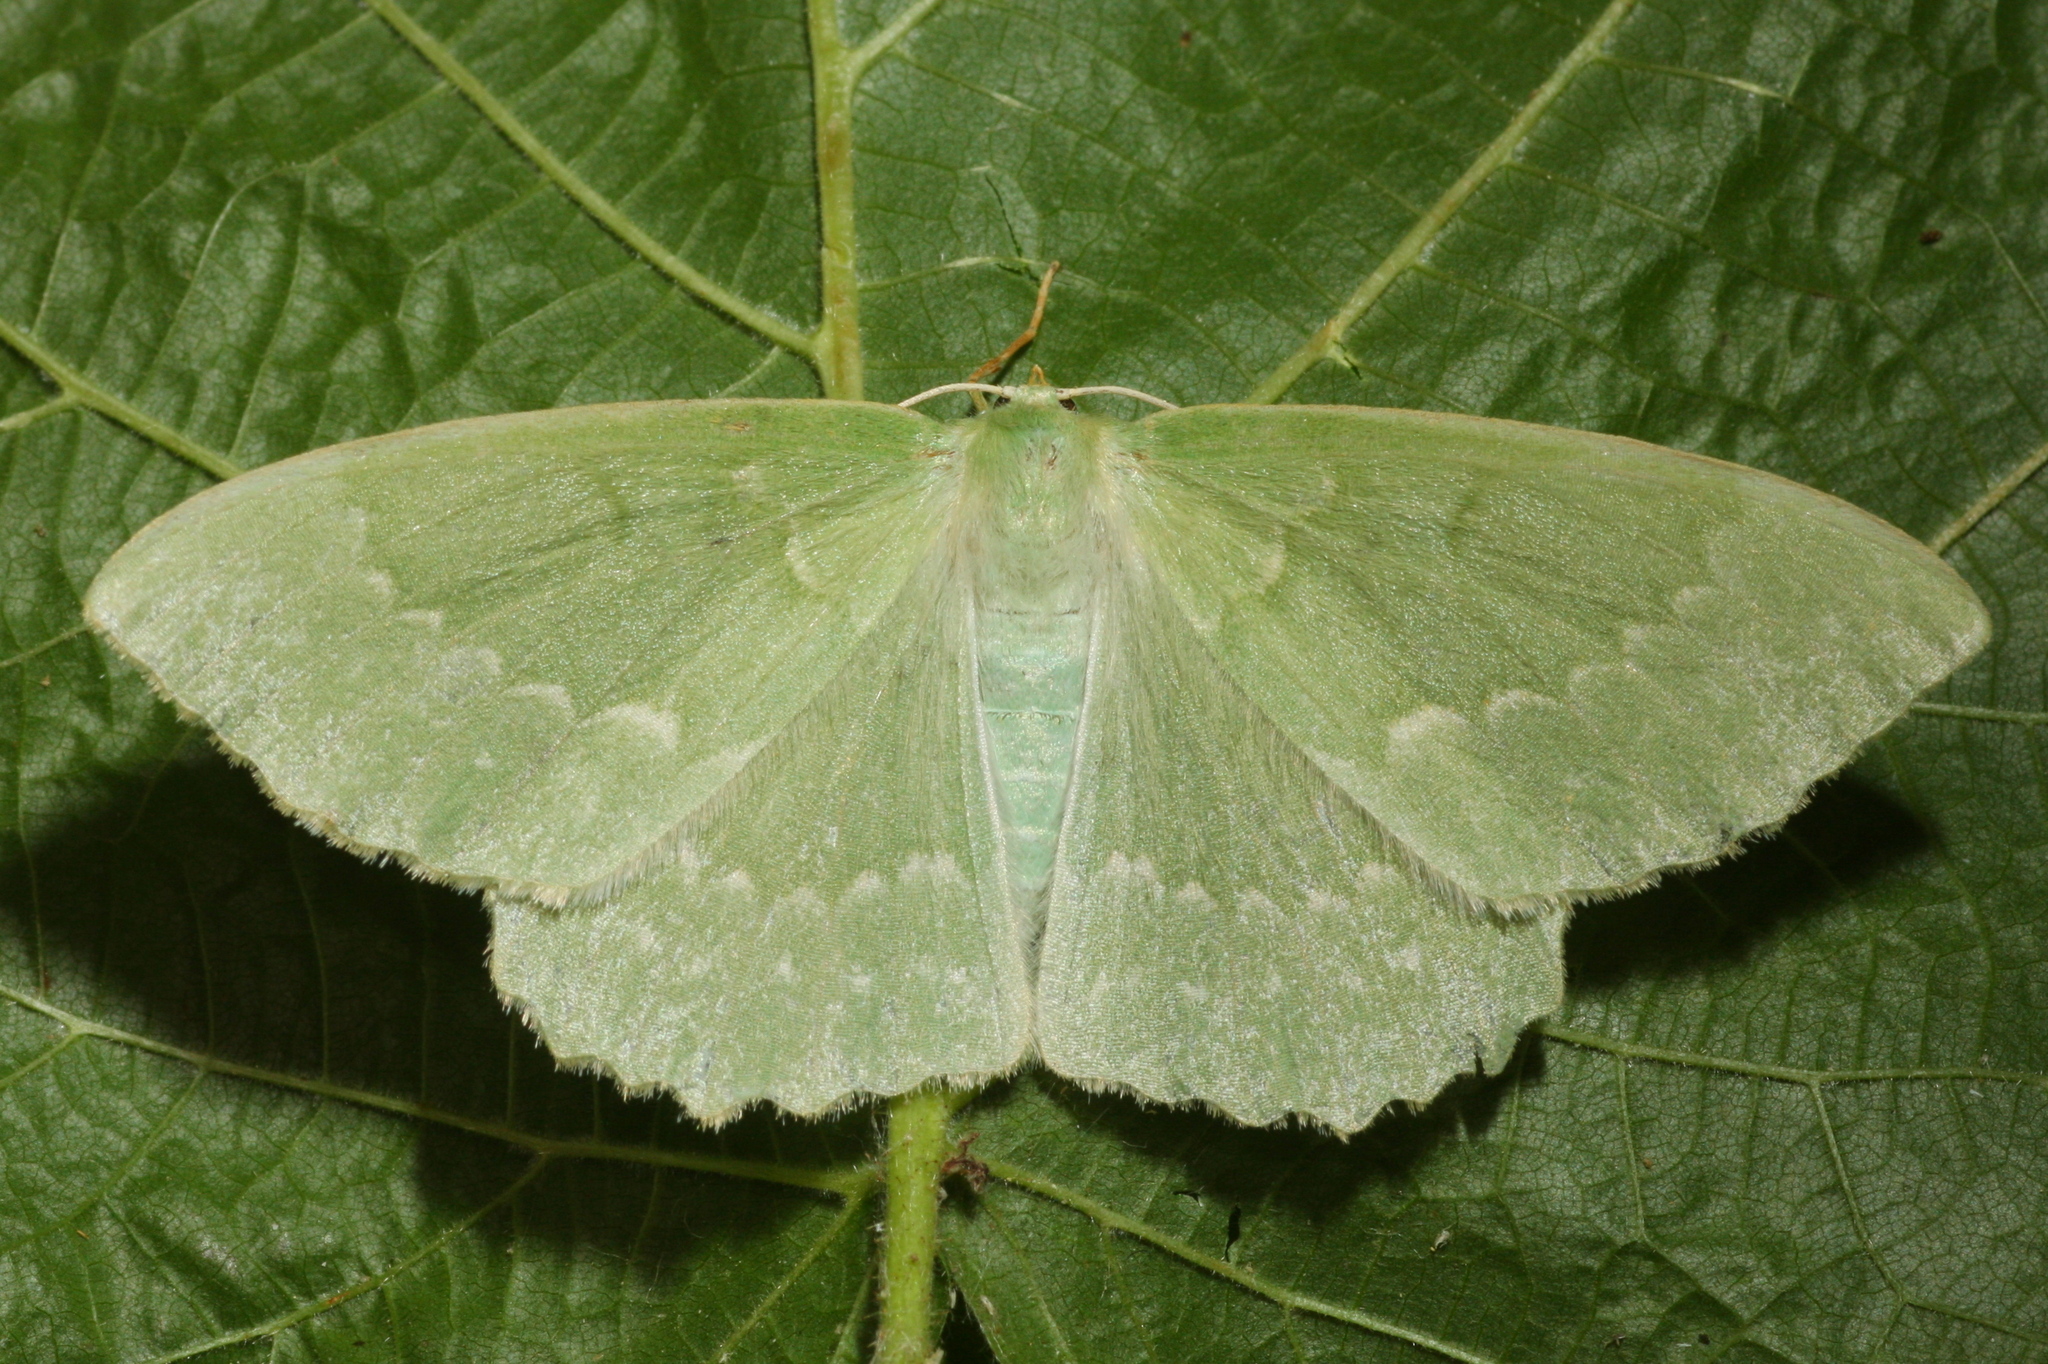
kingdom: Animalia
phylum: Arthropoda
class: Insecta
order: Lepidoptera
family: Geometridae
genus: Geometra
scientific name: Geometra papilionaria
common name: Large emerald
